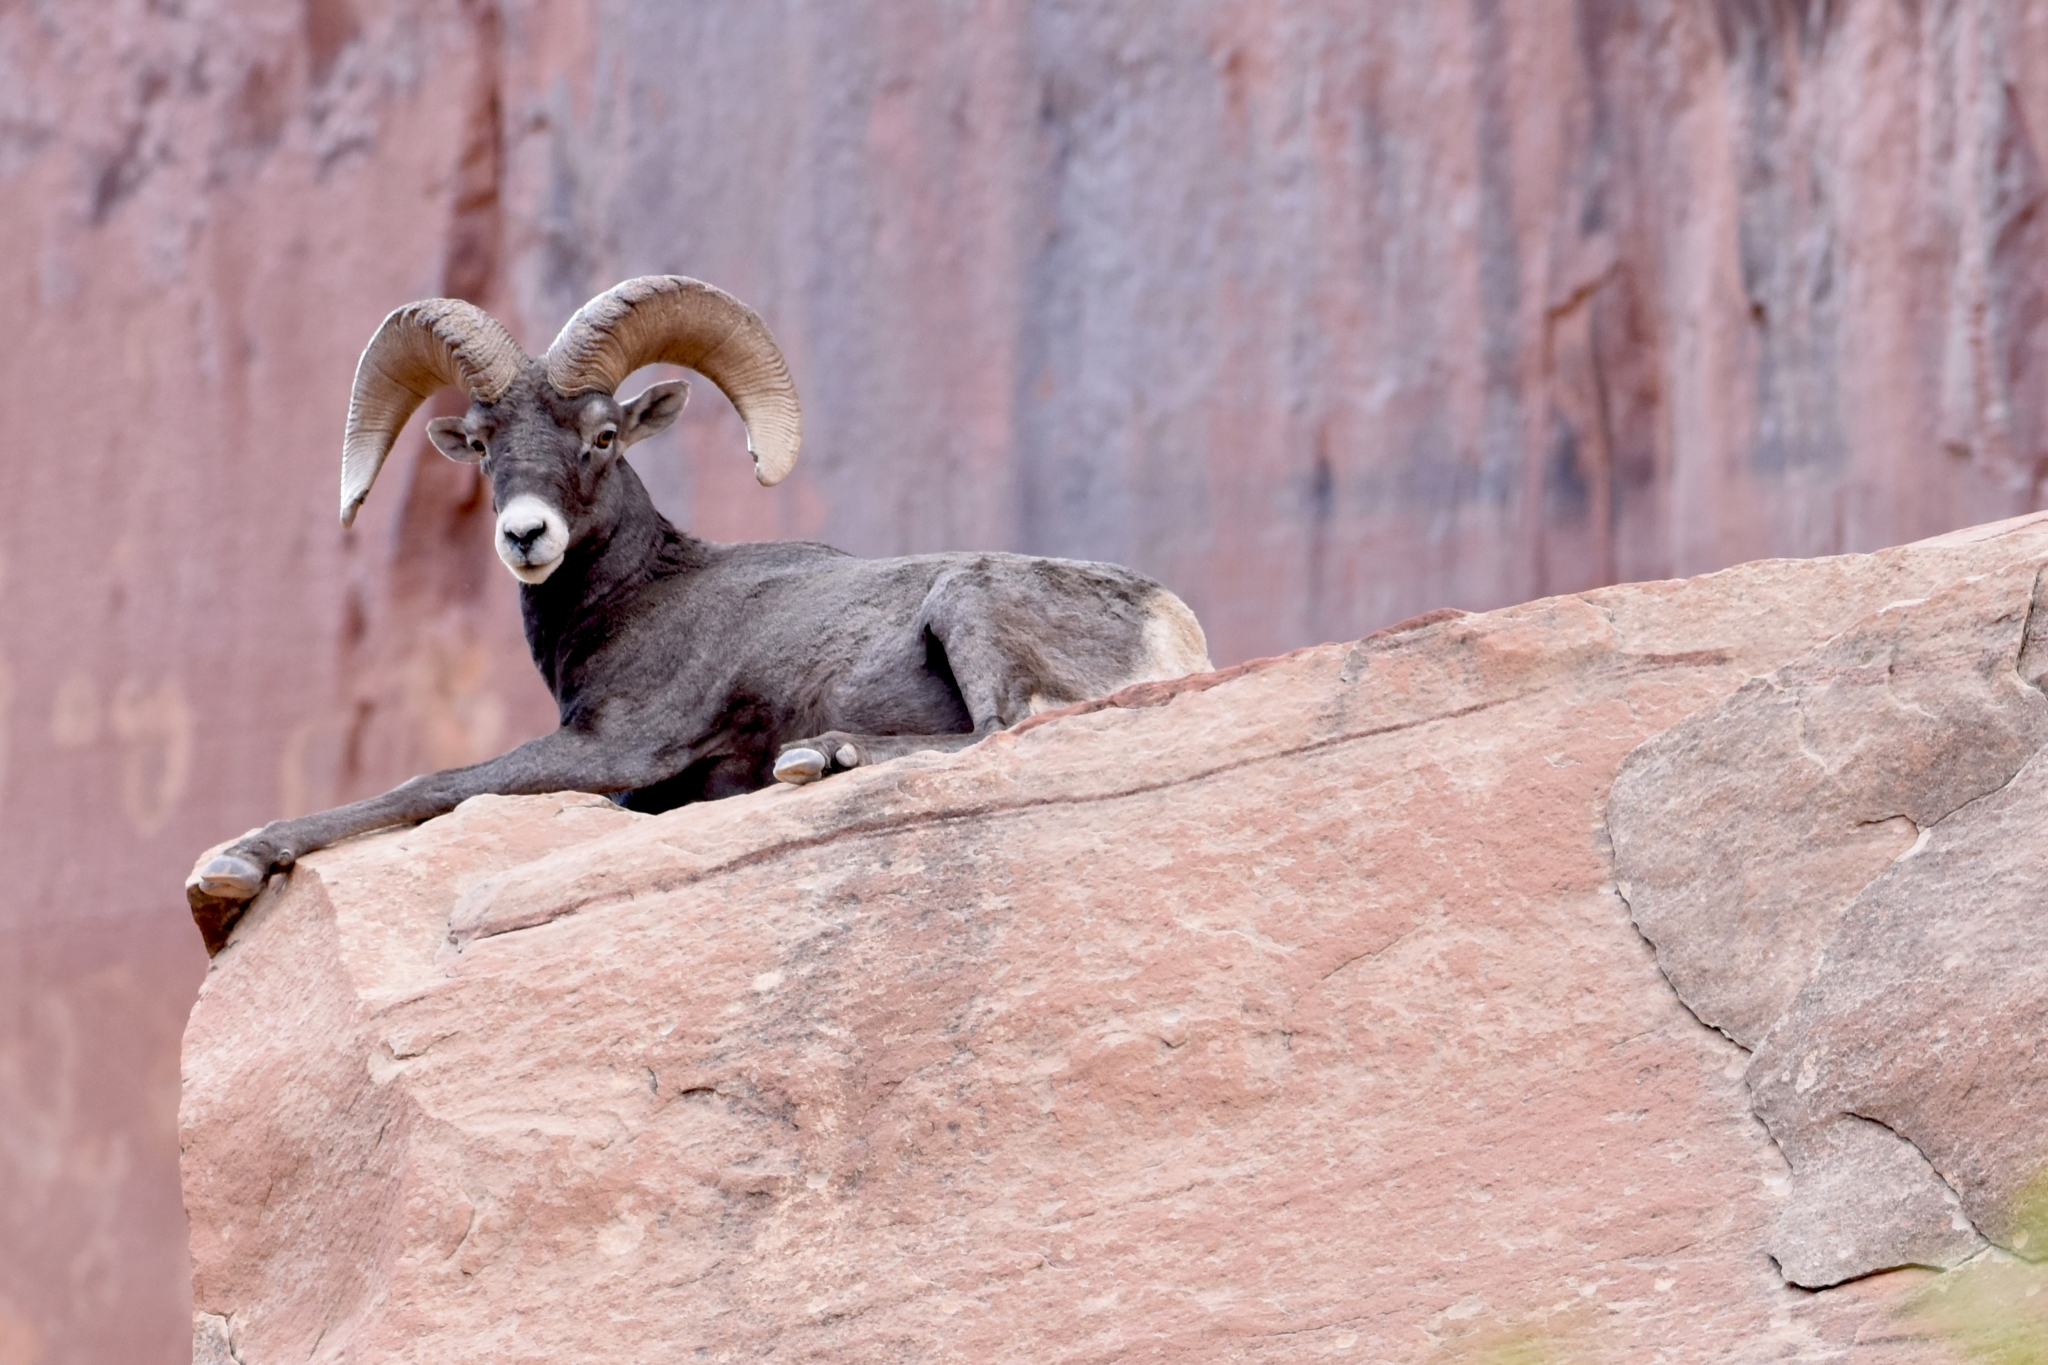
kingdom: Animalia
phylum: Chordata
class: Mammalia
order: Artiodactyla
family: Bovidae
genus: Ovis
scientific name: Ovis canadensis
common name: Bighorn sheep
